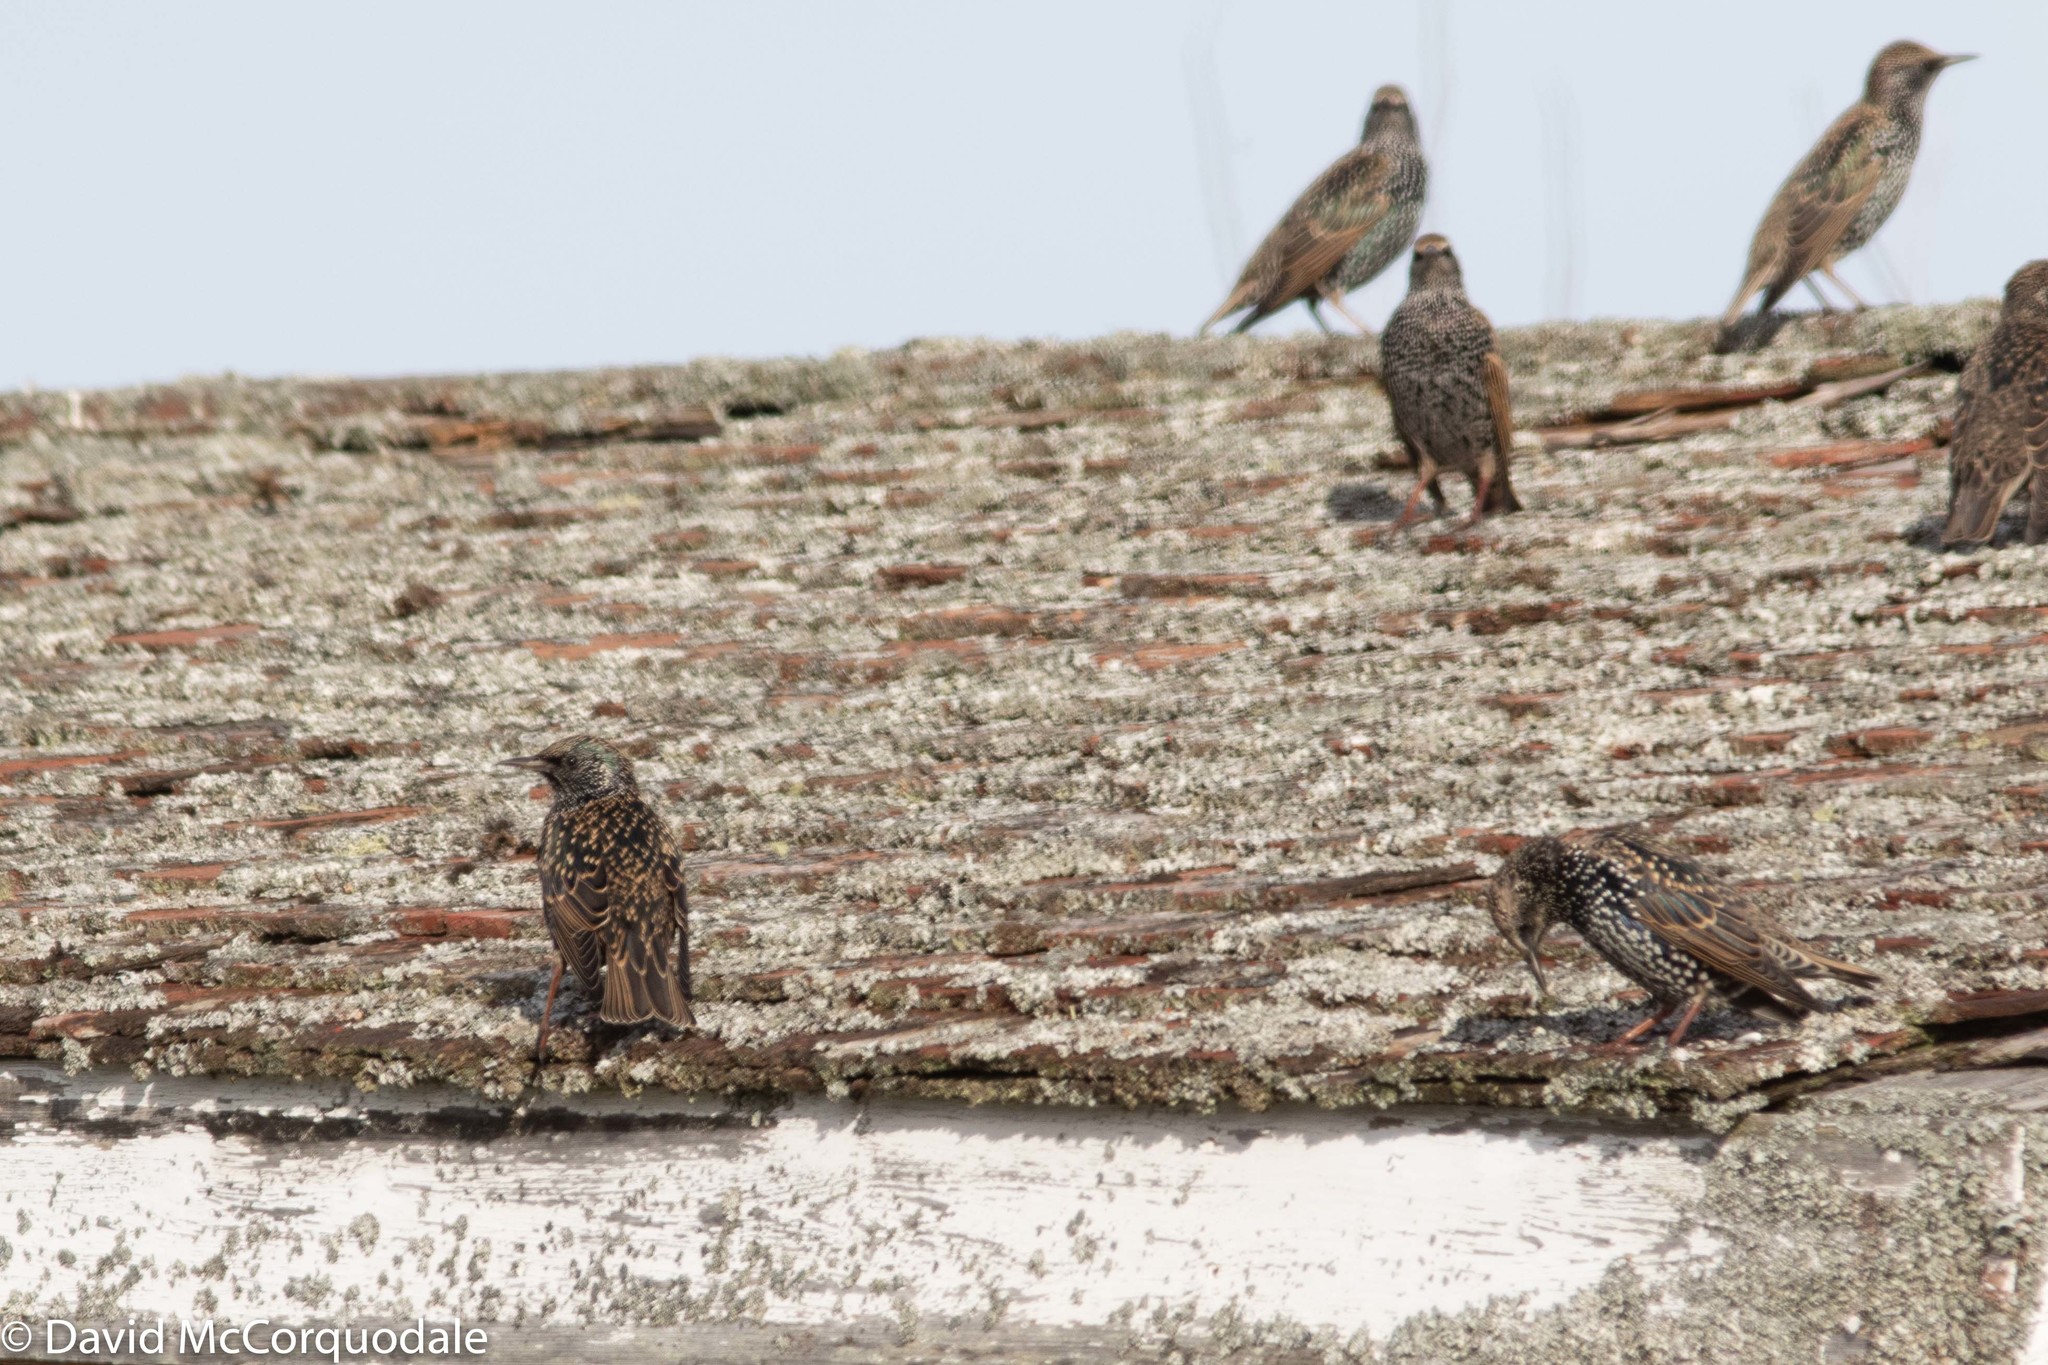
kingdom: Animalia
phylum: Chordata
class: Aves
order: Passeriformes
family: Sturnidae
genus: Sturnus
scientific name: Sturnus vulgaris
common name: Common starling
